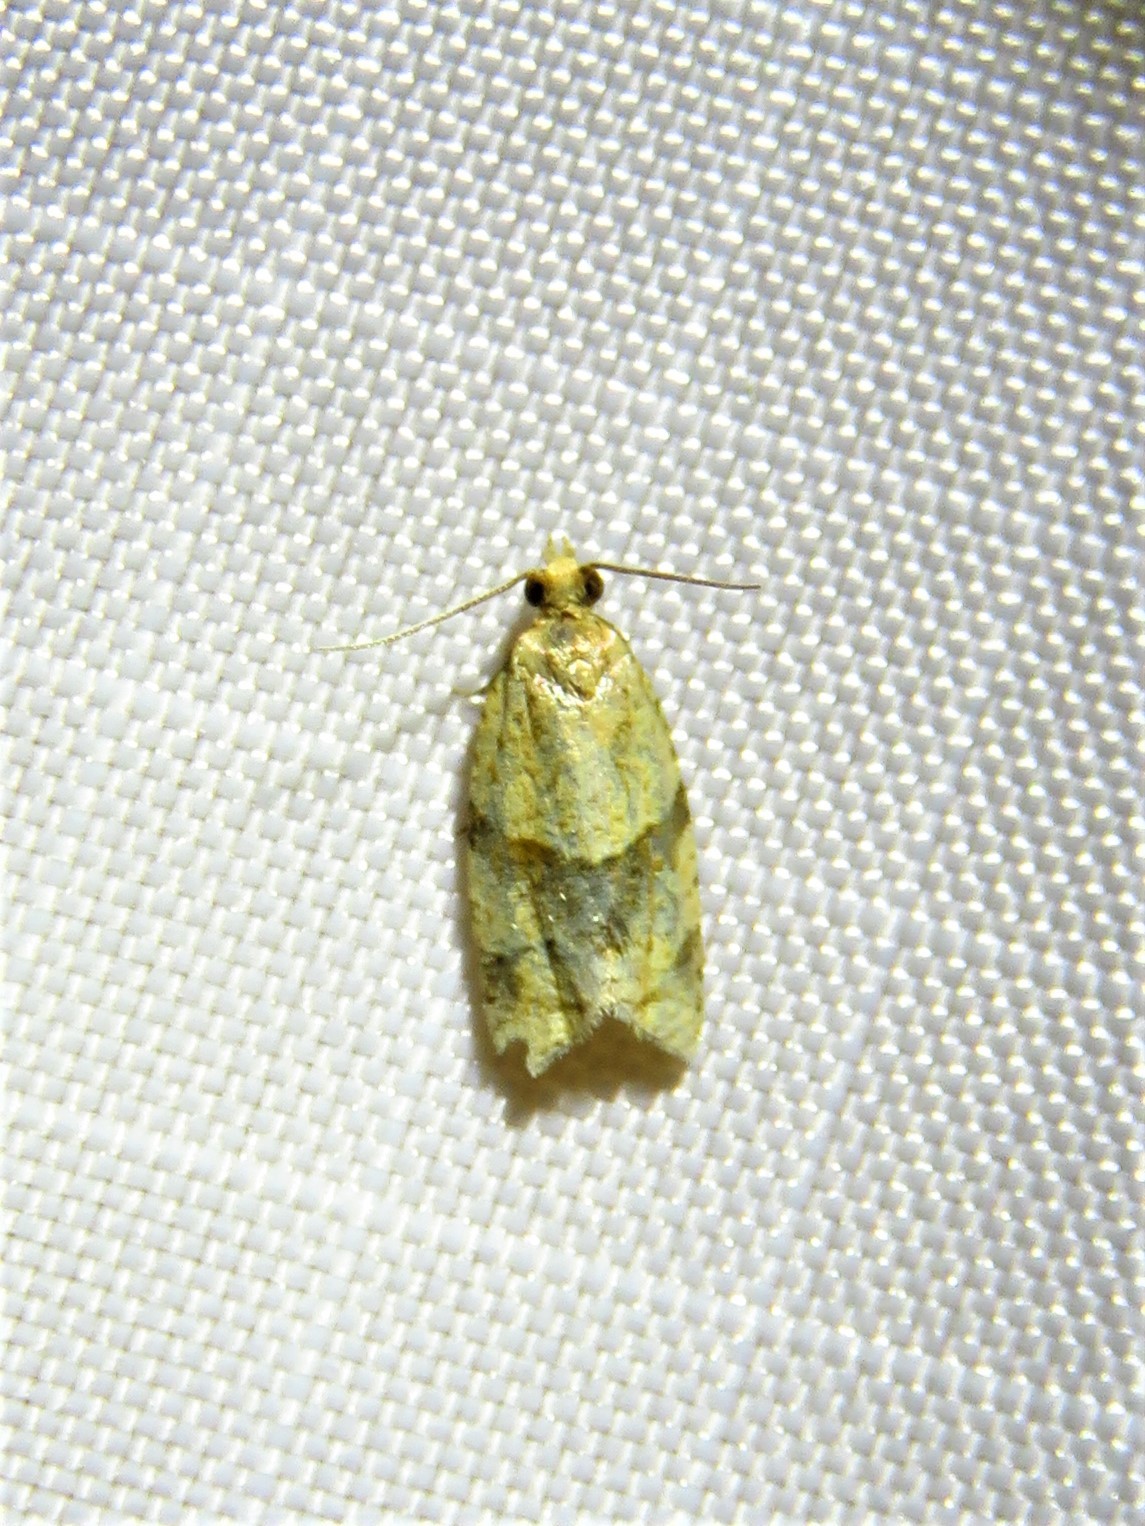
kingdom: Animalia
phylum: Arthropoda
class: Insecta
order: Lepidoptera
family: Tortricidae
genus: Clepsis
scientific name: Clepsis peritana
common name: Garden tortrix
